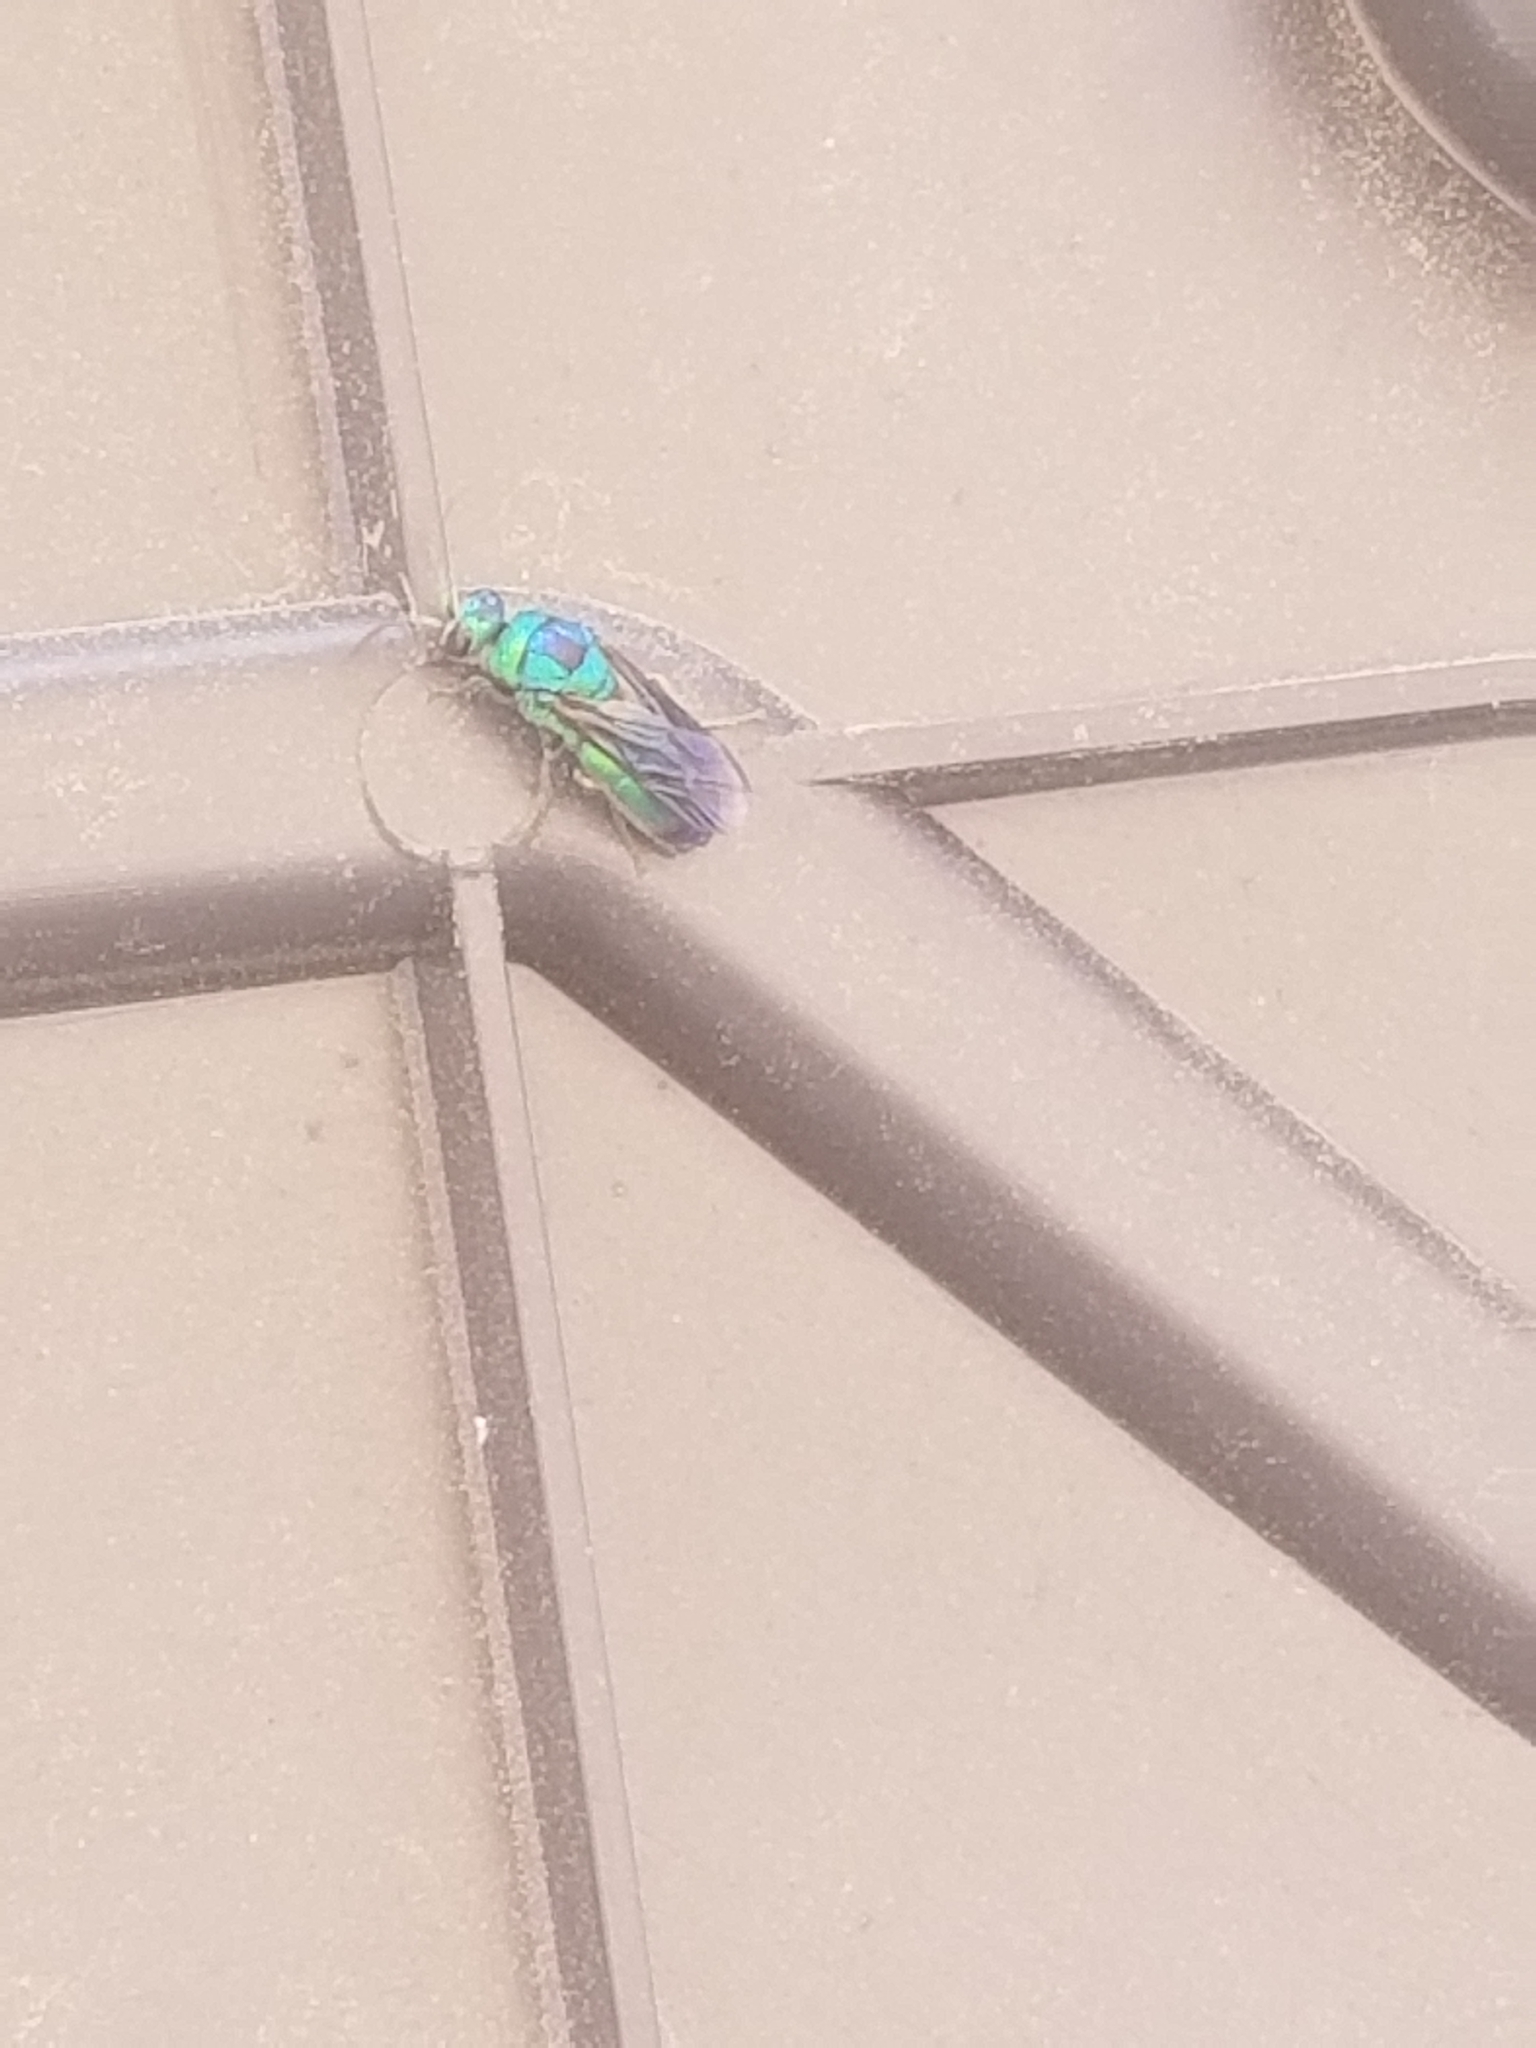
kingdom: Animalia
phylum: Arthropoda
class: Insecta
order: Hymenoptera
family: Chrysididae
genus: Chrysis
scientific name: Chrysis angolensis
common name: Cuckoo wasp
